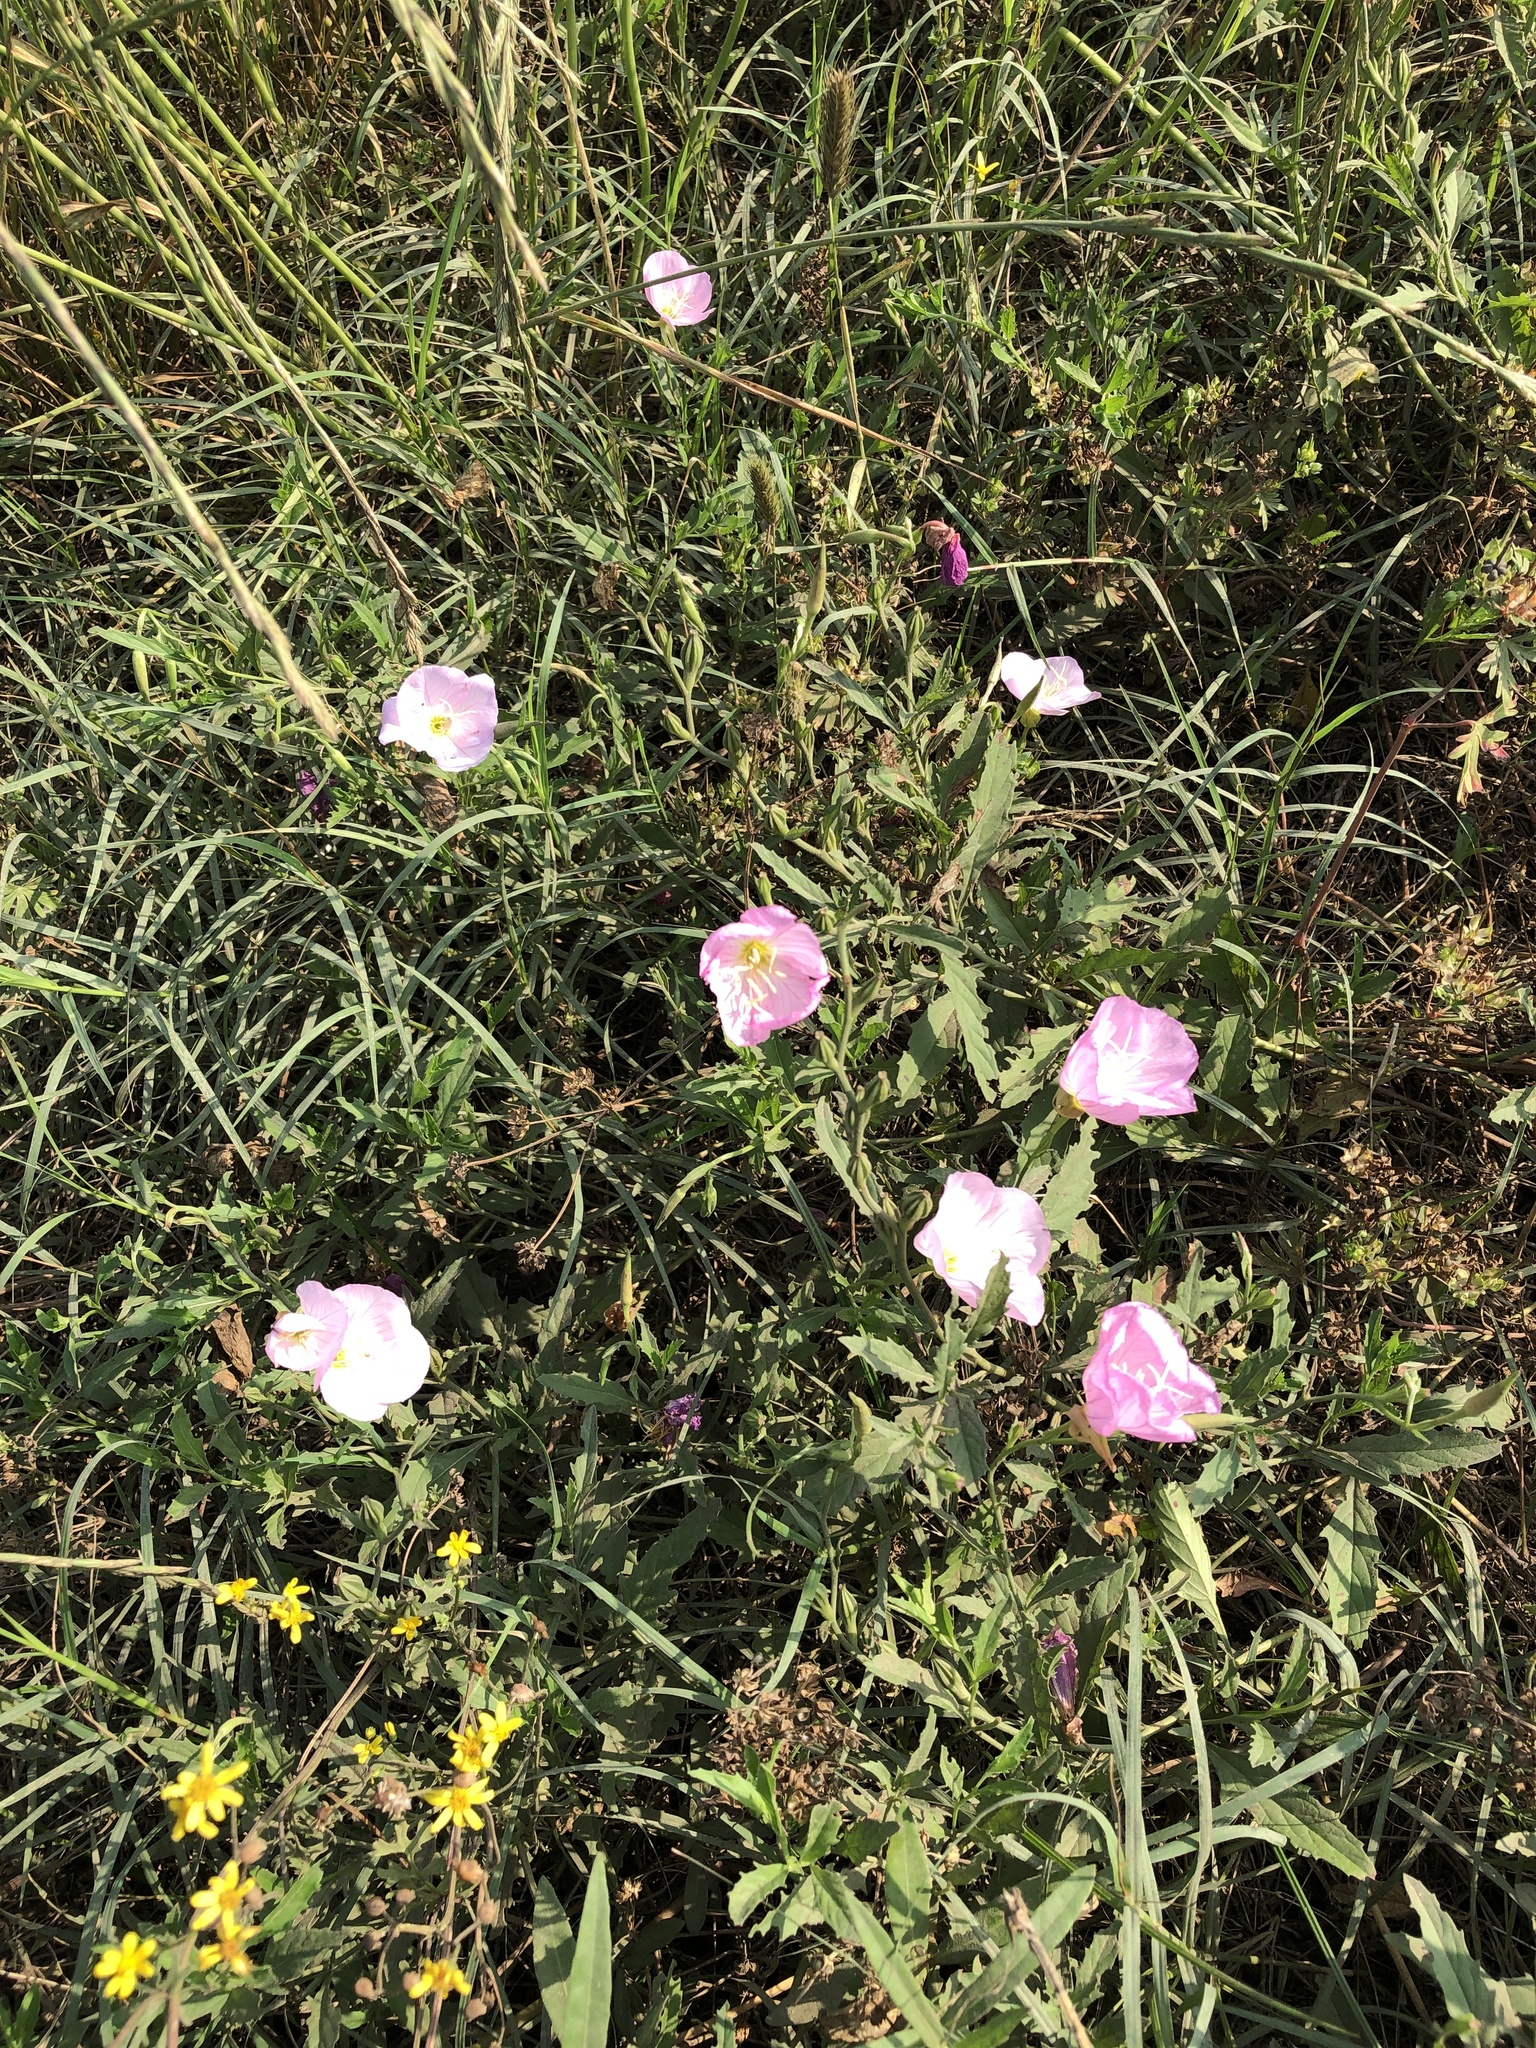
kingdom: Plantae
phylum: Tracheophyta
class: Magnoliopsida
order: Myrtales
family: Onagraceae
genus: Oenothera
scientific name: Oenothera speciosa
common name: White evening-primrose
